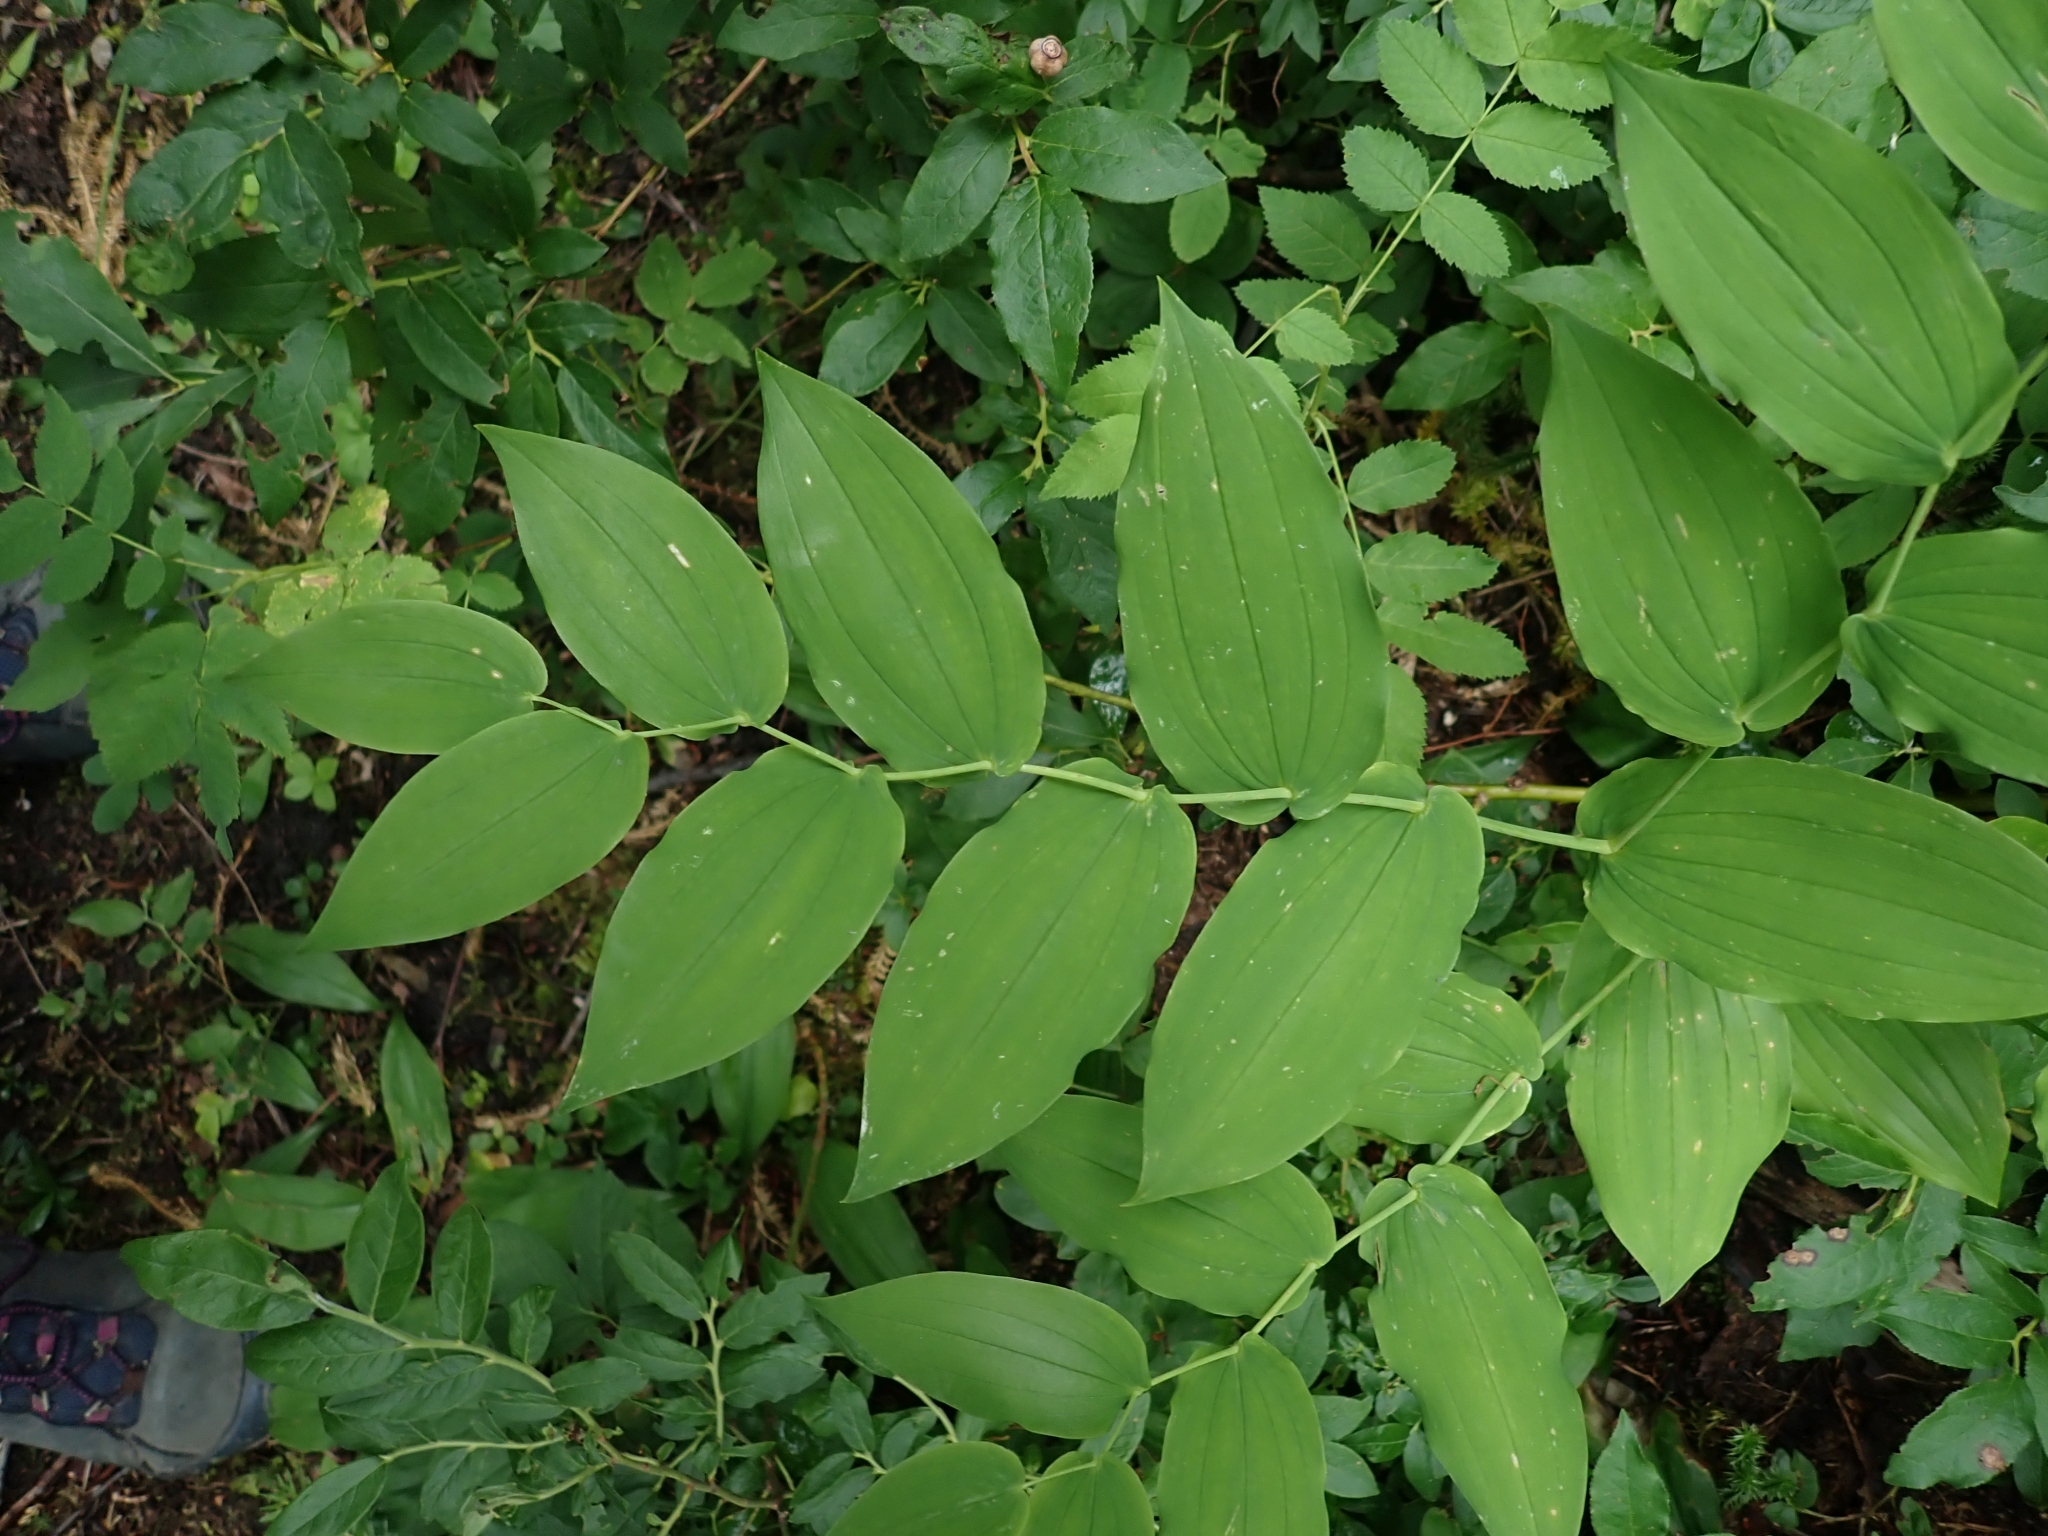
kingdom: Plantae
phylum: Tracheophyta
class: Liliopsida
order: Liliales
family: Liliaceae
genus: Streptopus
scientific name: Streptopus amplexifolius
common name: Clasp twisted stalk
